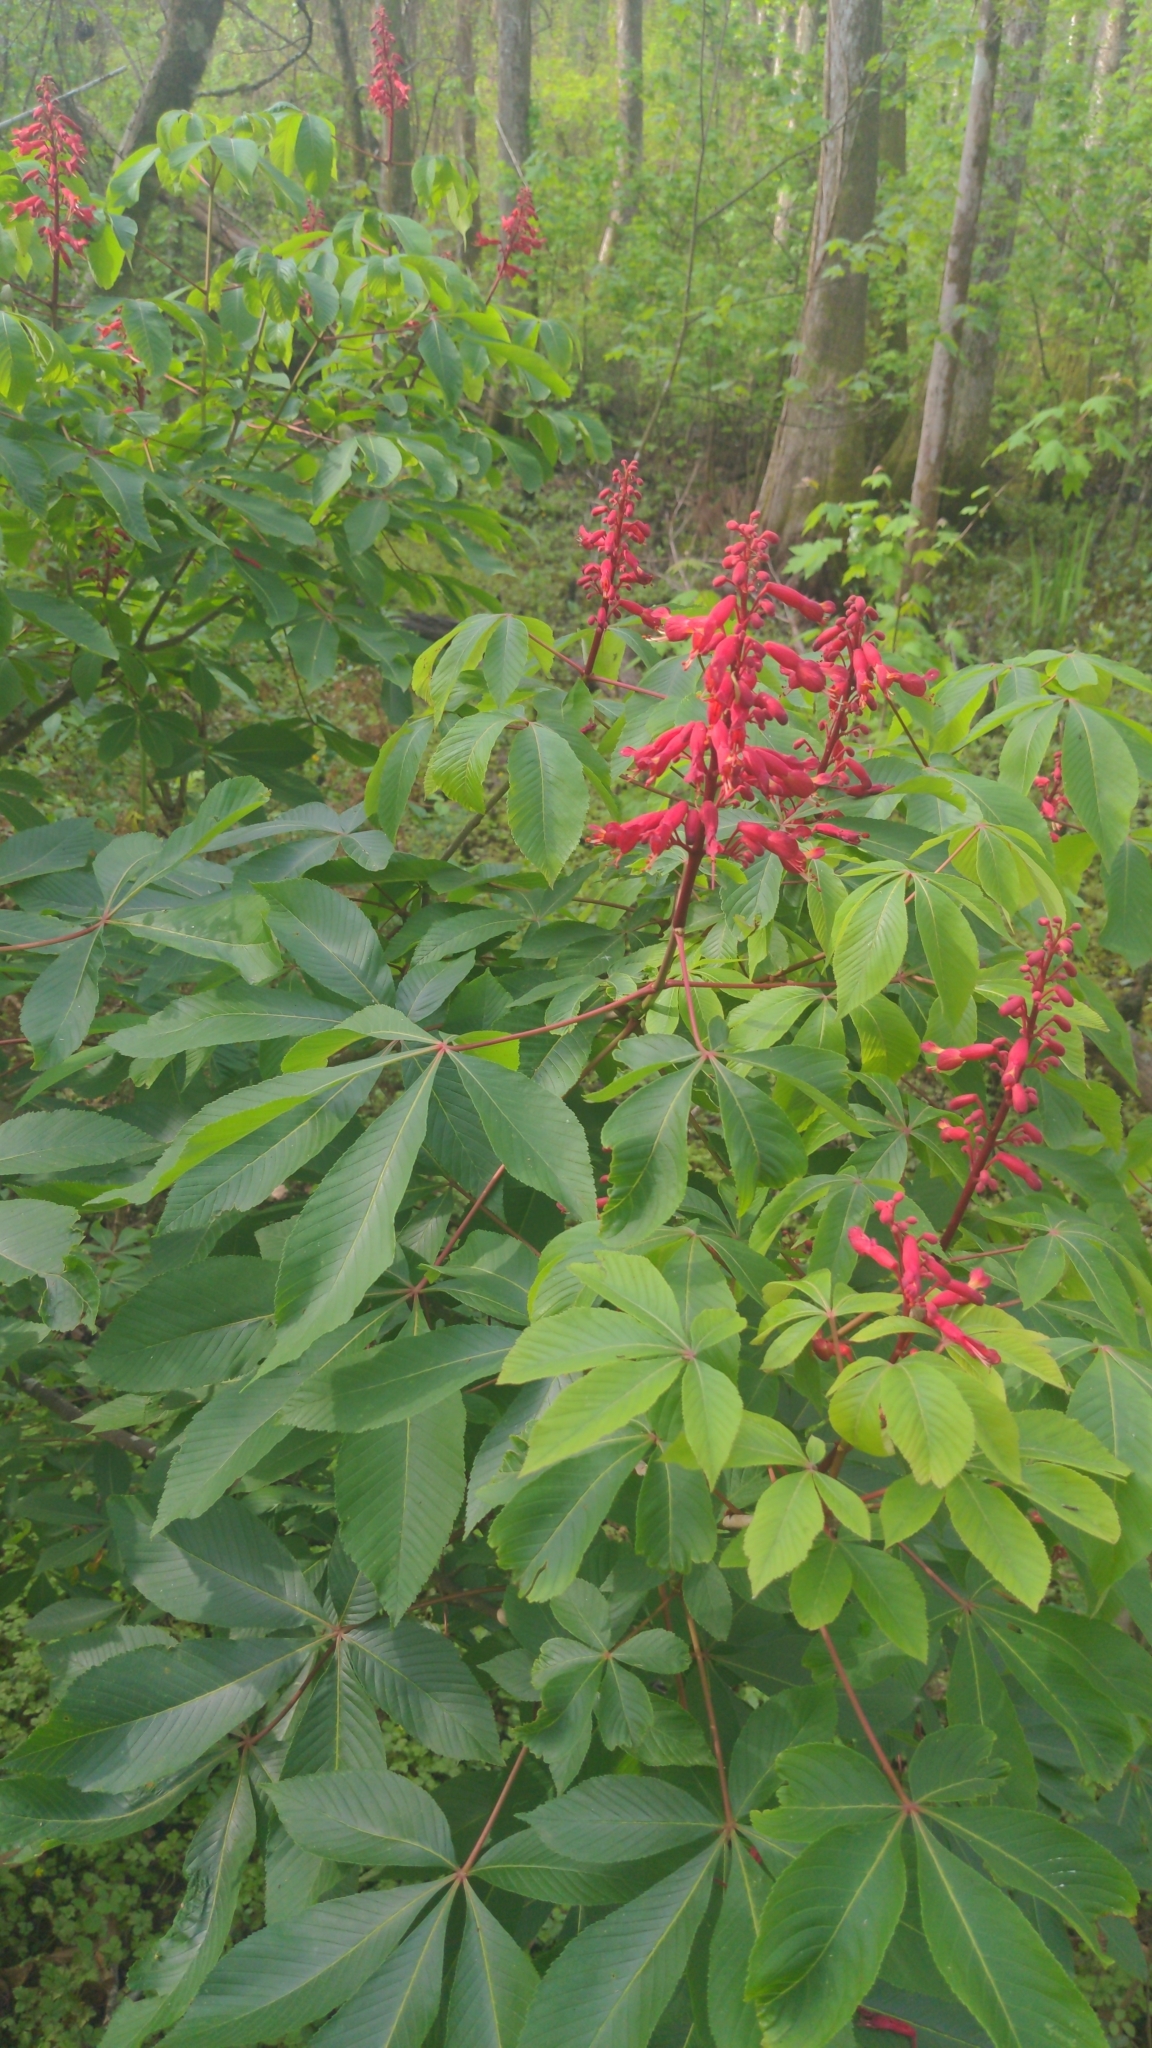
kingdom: Plantae
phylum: Tracheophyta
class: Magnoliopsida
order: Sapindales
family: Sapindaceae
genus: Aesculus
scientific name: Aesculus pavia
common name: Red buckeye
